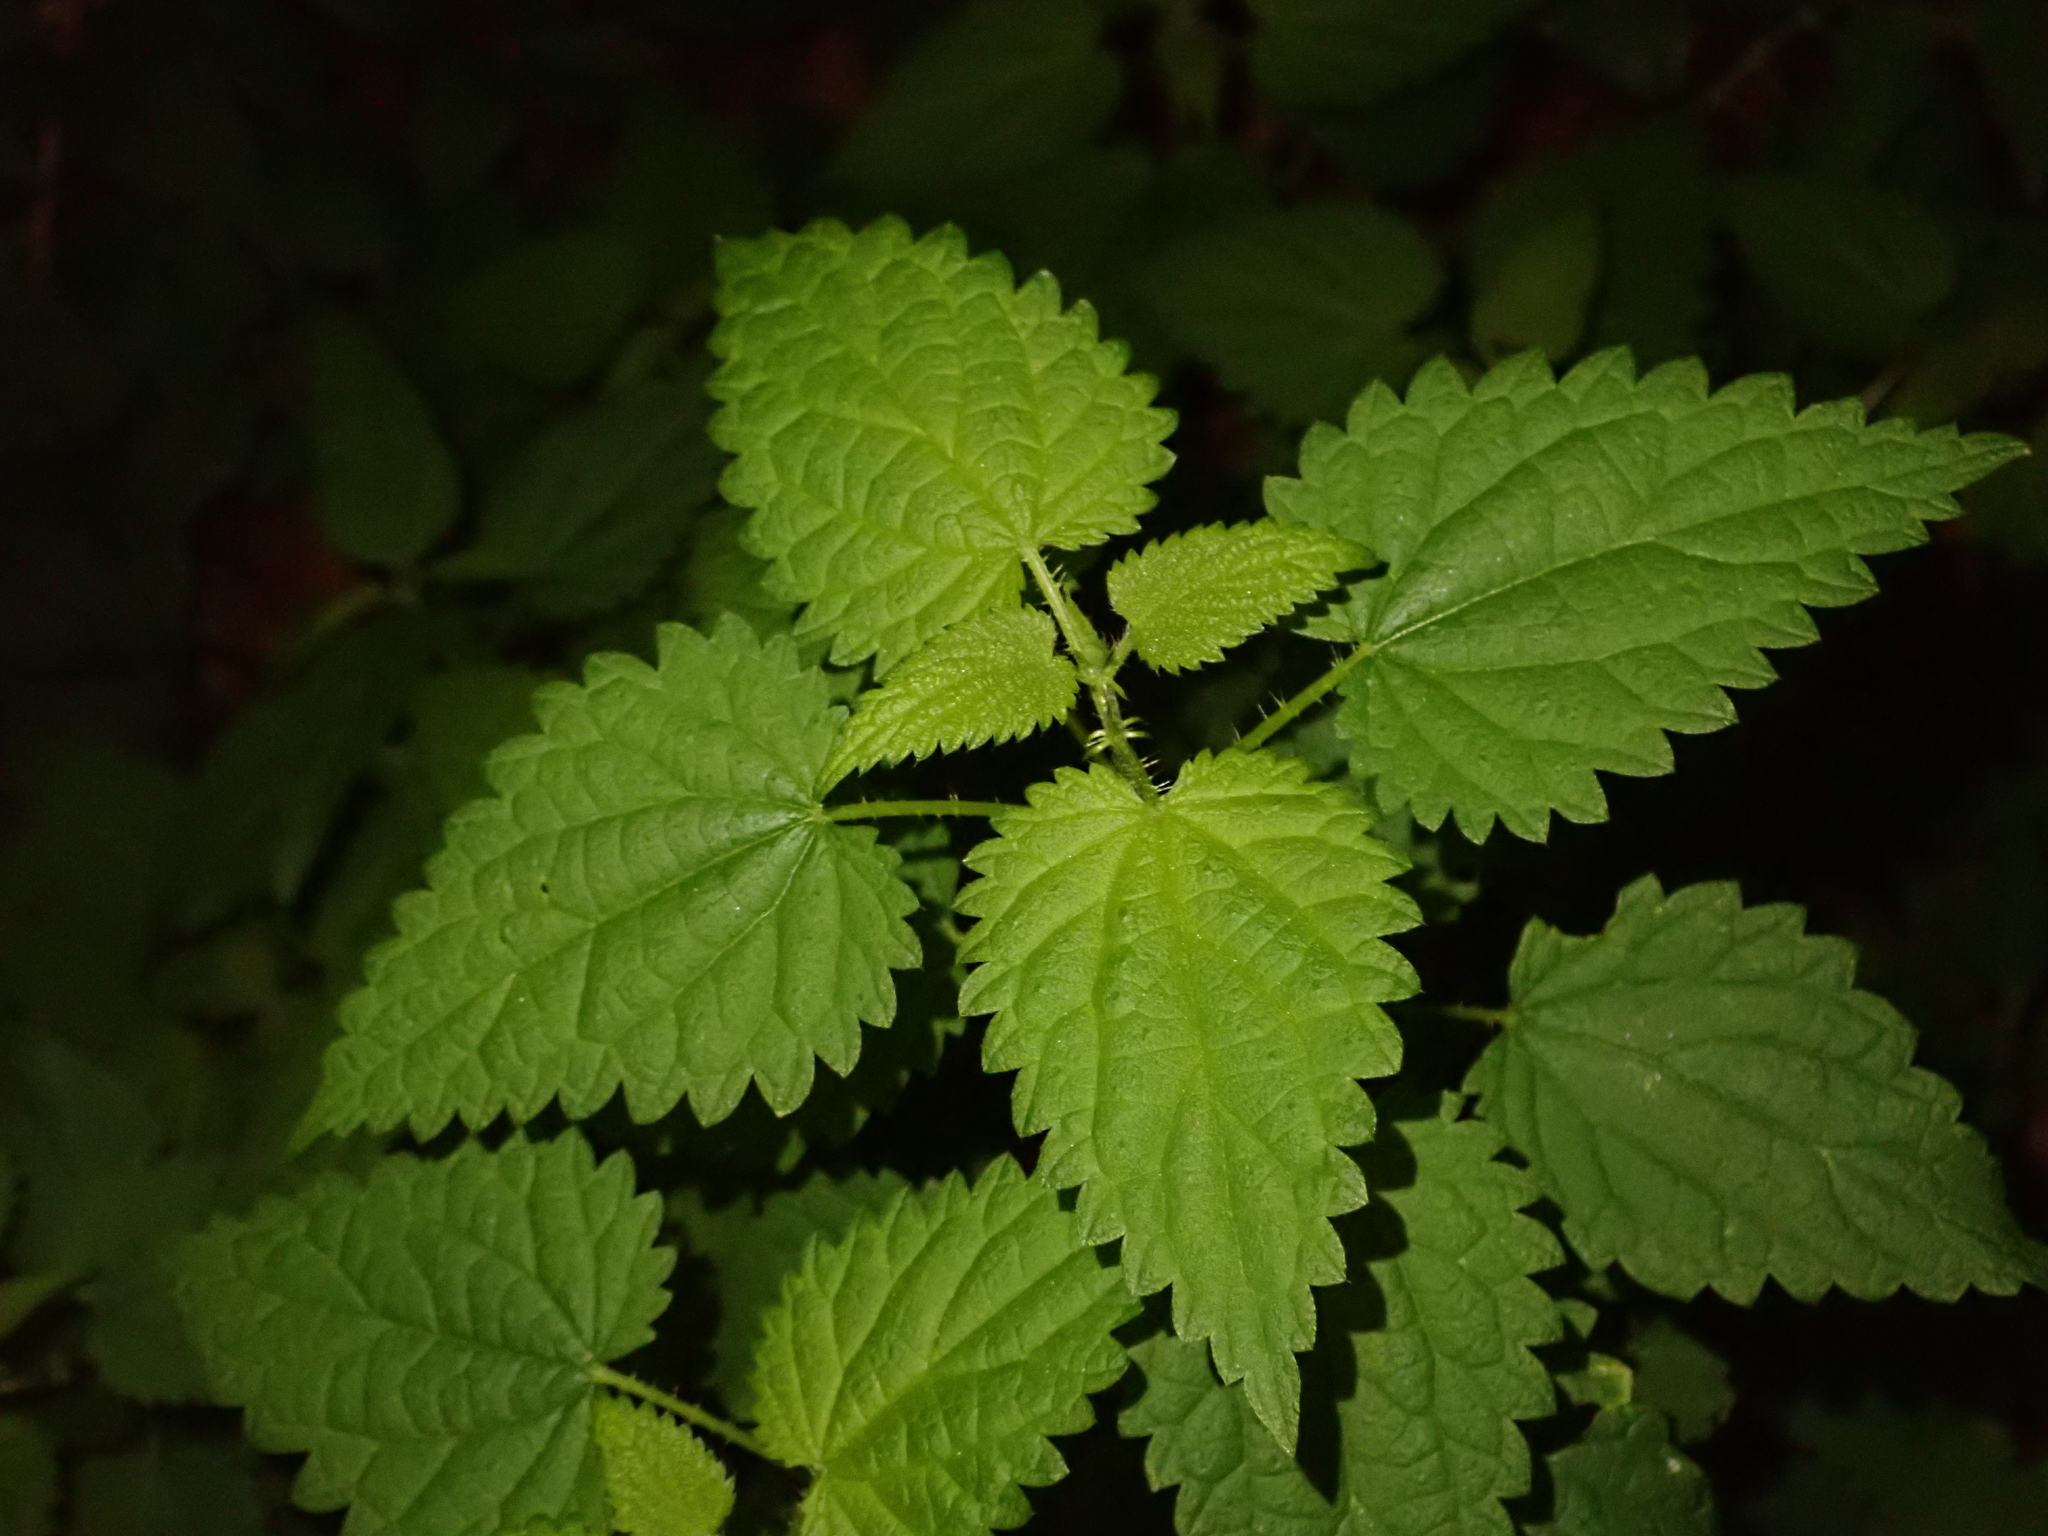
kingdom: Plantae
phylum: Tracheophyta
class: Magnoliopsida
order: Rosales
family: Urticaceae
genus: Urtica
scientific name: Urtica dioica
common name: Common nettle
